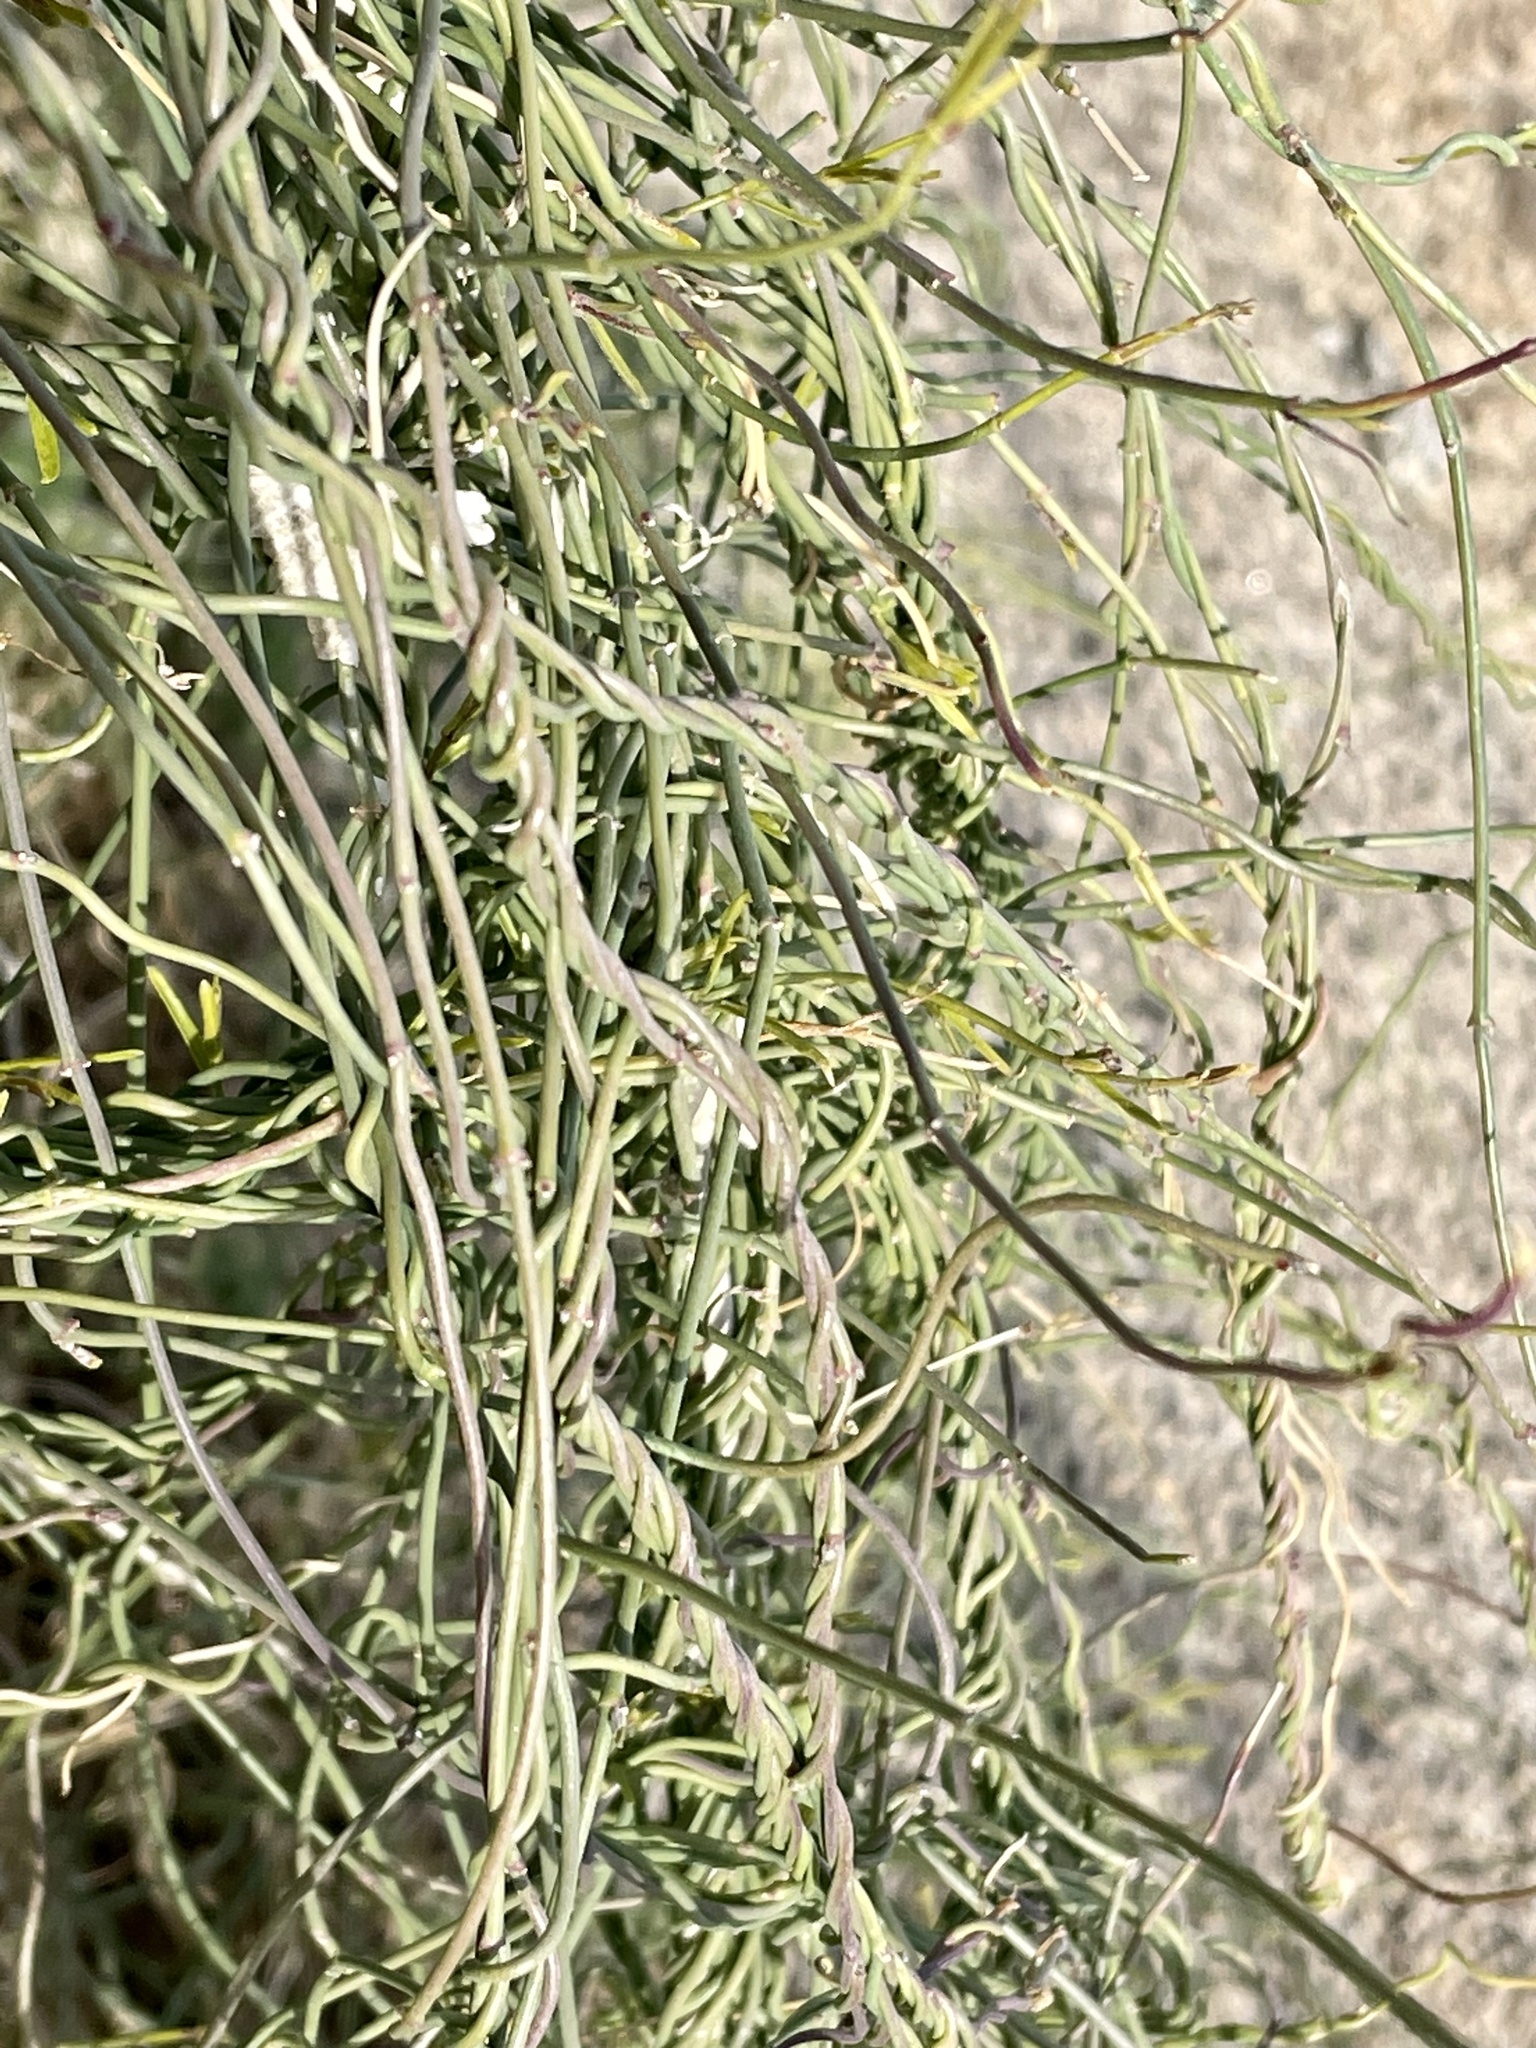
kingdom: Plantae
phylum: Tracheophyta
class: Magnoliopsida
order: Gentianales
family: Apocynaceae
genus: Funastrum
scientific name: Funastrum heterophyllum
